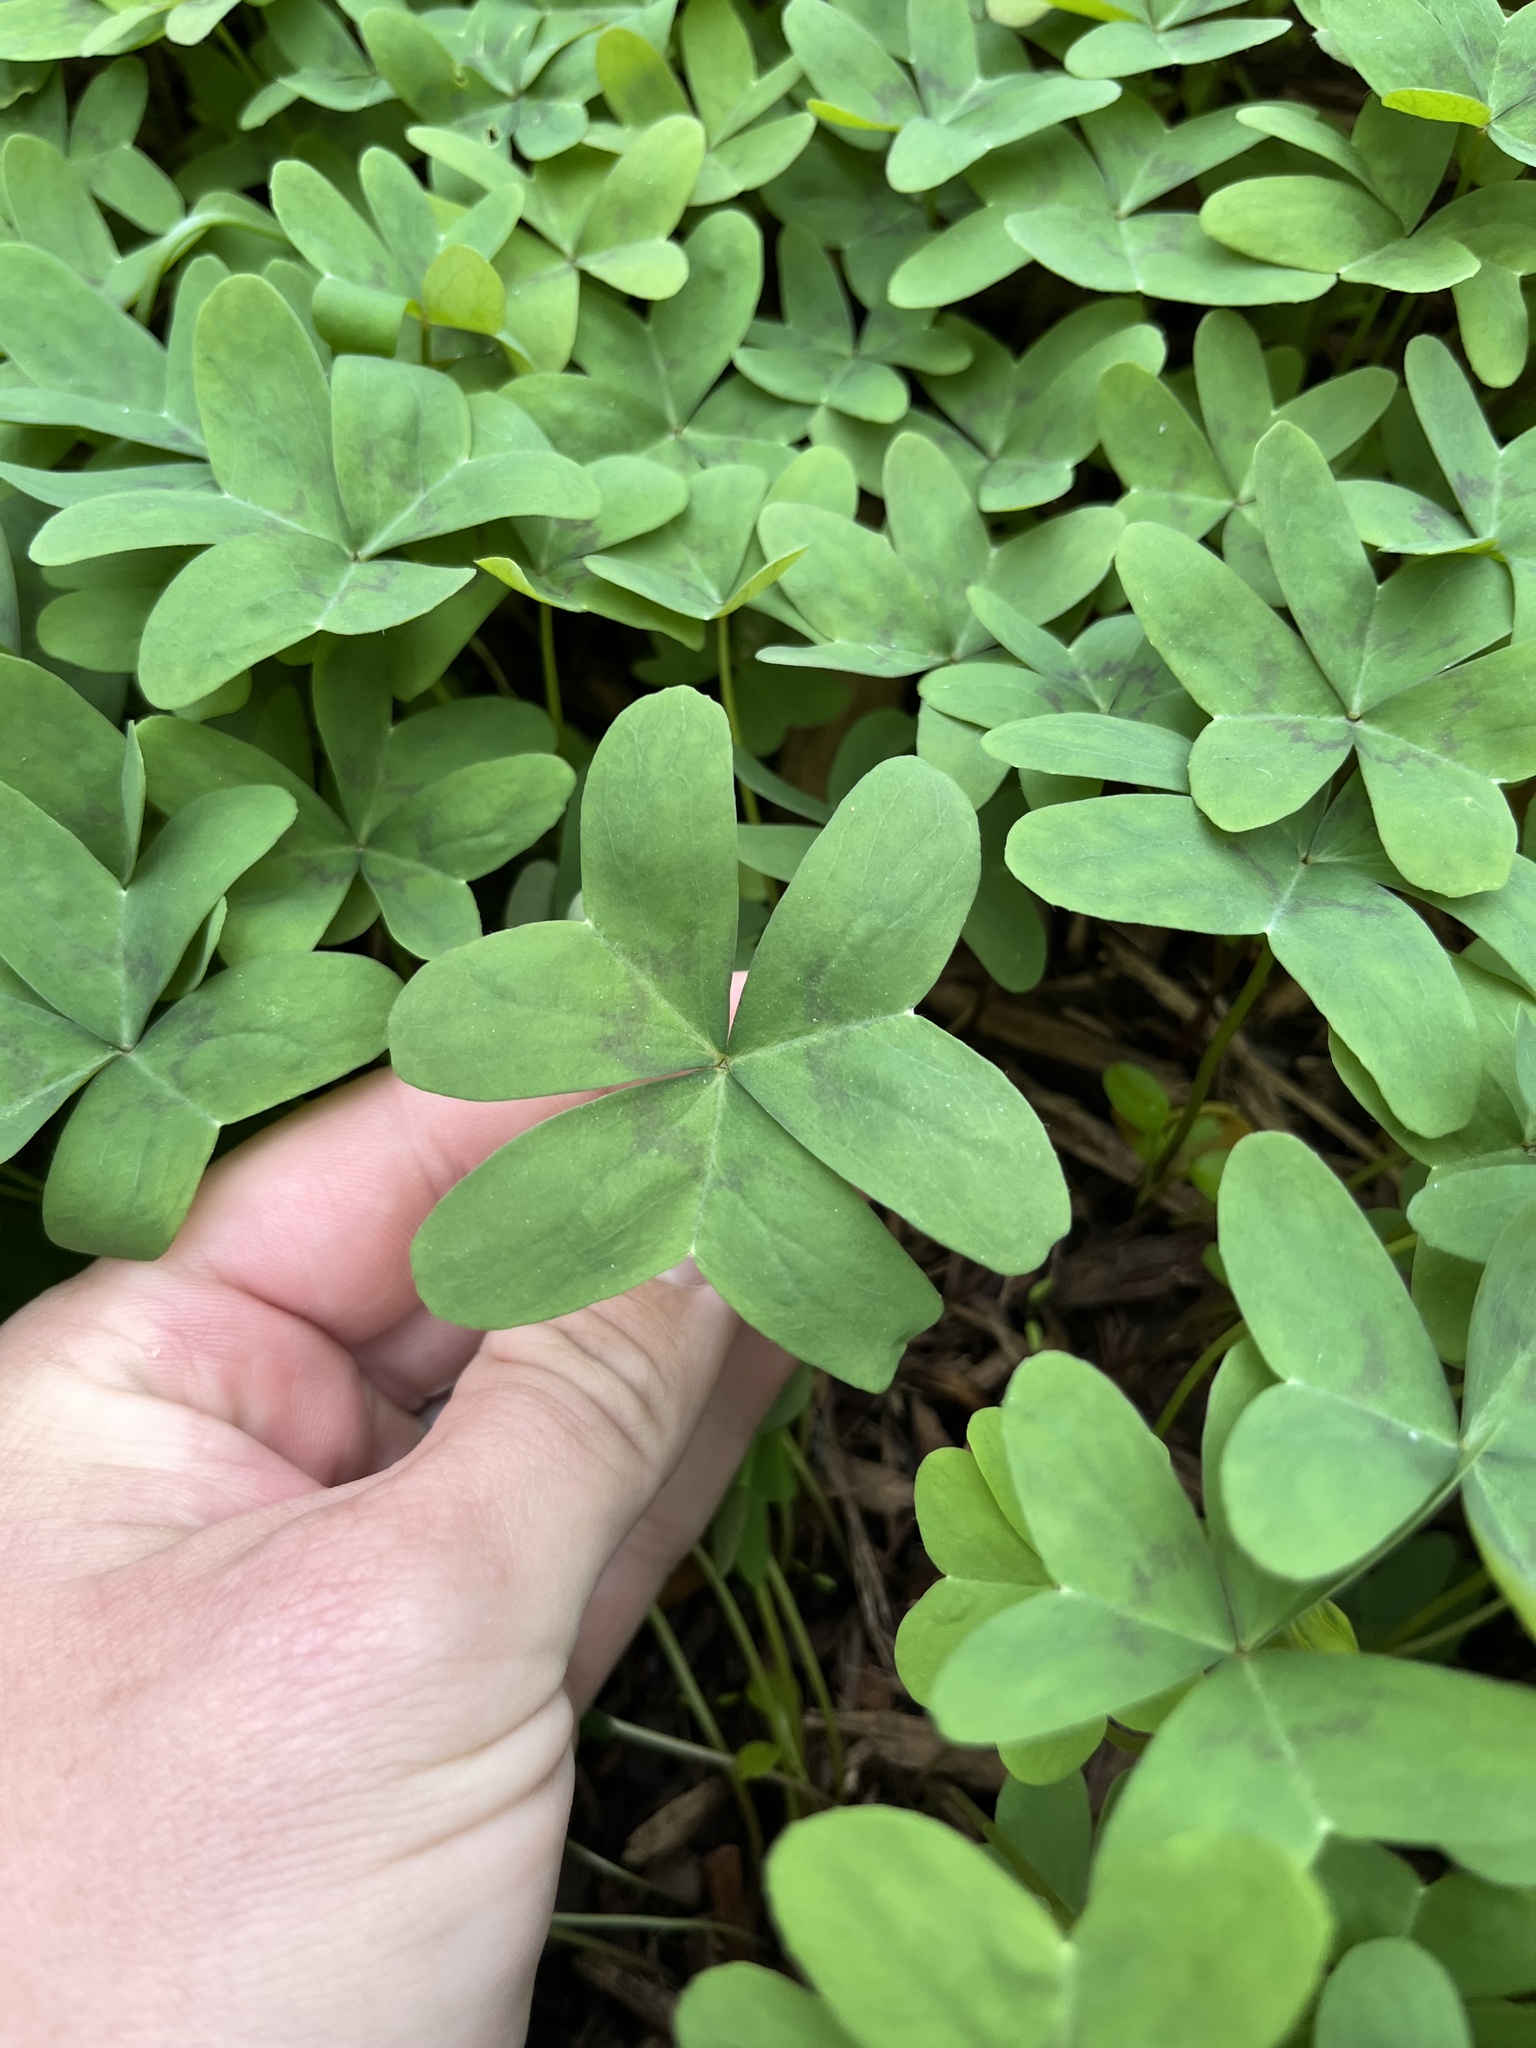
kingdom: Plantae
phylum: Tracheophyta
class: Magnoliopsida
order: Oxalidales
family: Oxalidaceae
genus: Oxalis
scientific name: Oxalis drummondii
